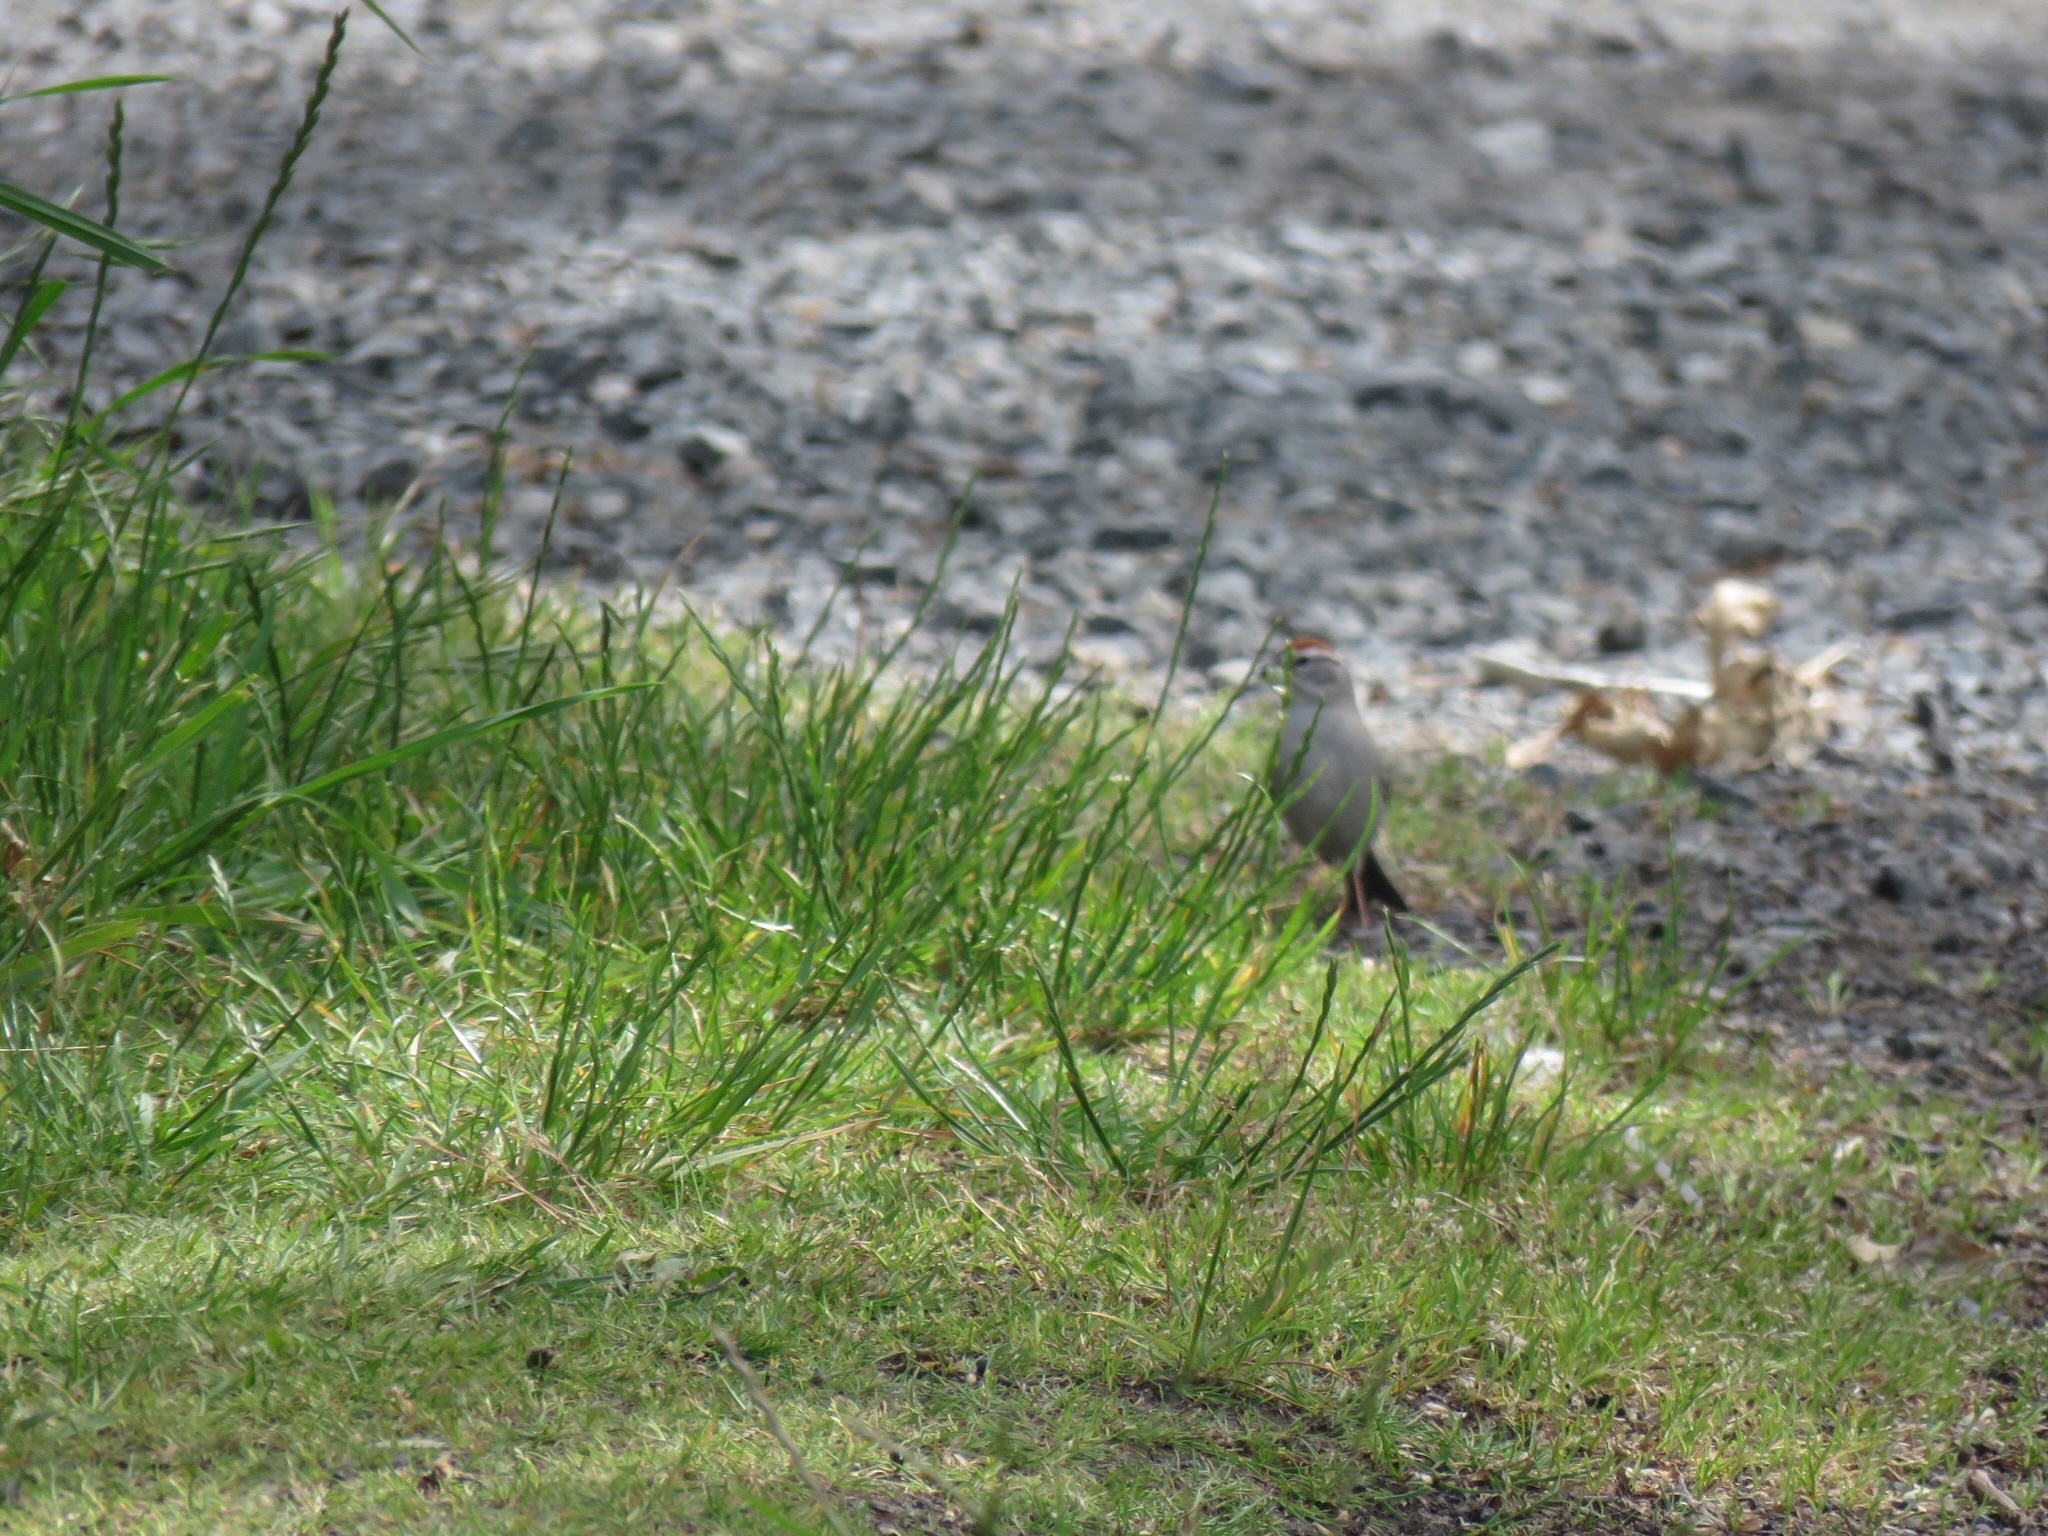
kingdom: Animalia
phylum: Chordata
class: Aves
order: Passeriformes
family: Passerellidae
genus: Spizella
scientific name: Spizella passerina
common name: Chipping sparrow
